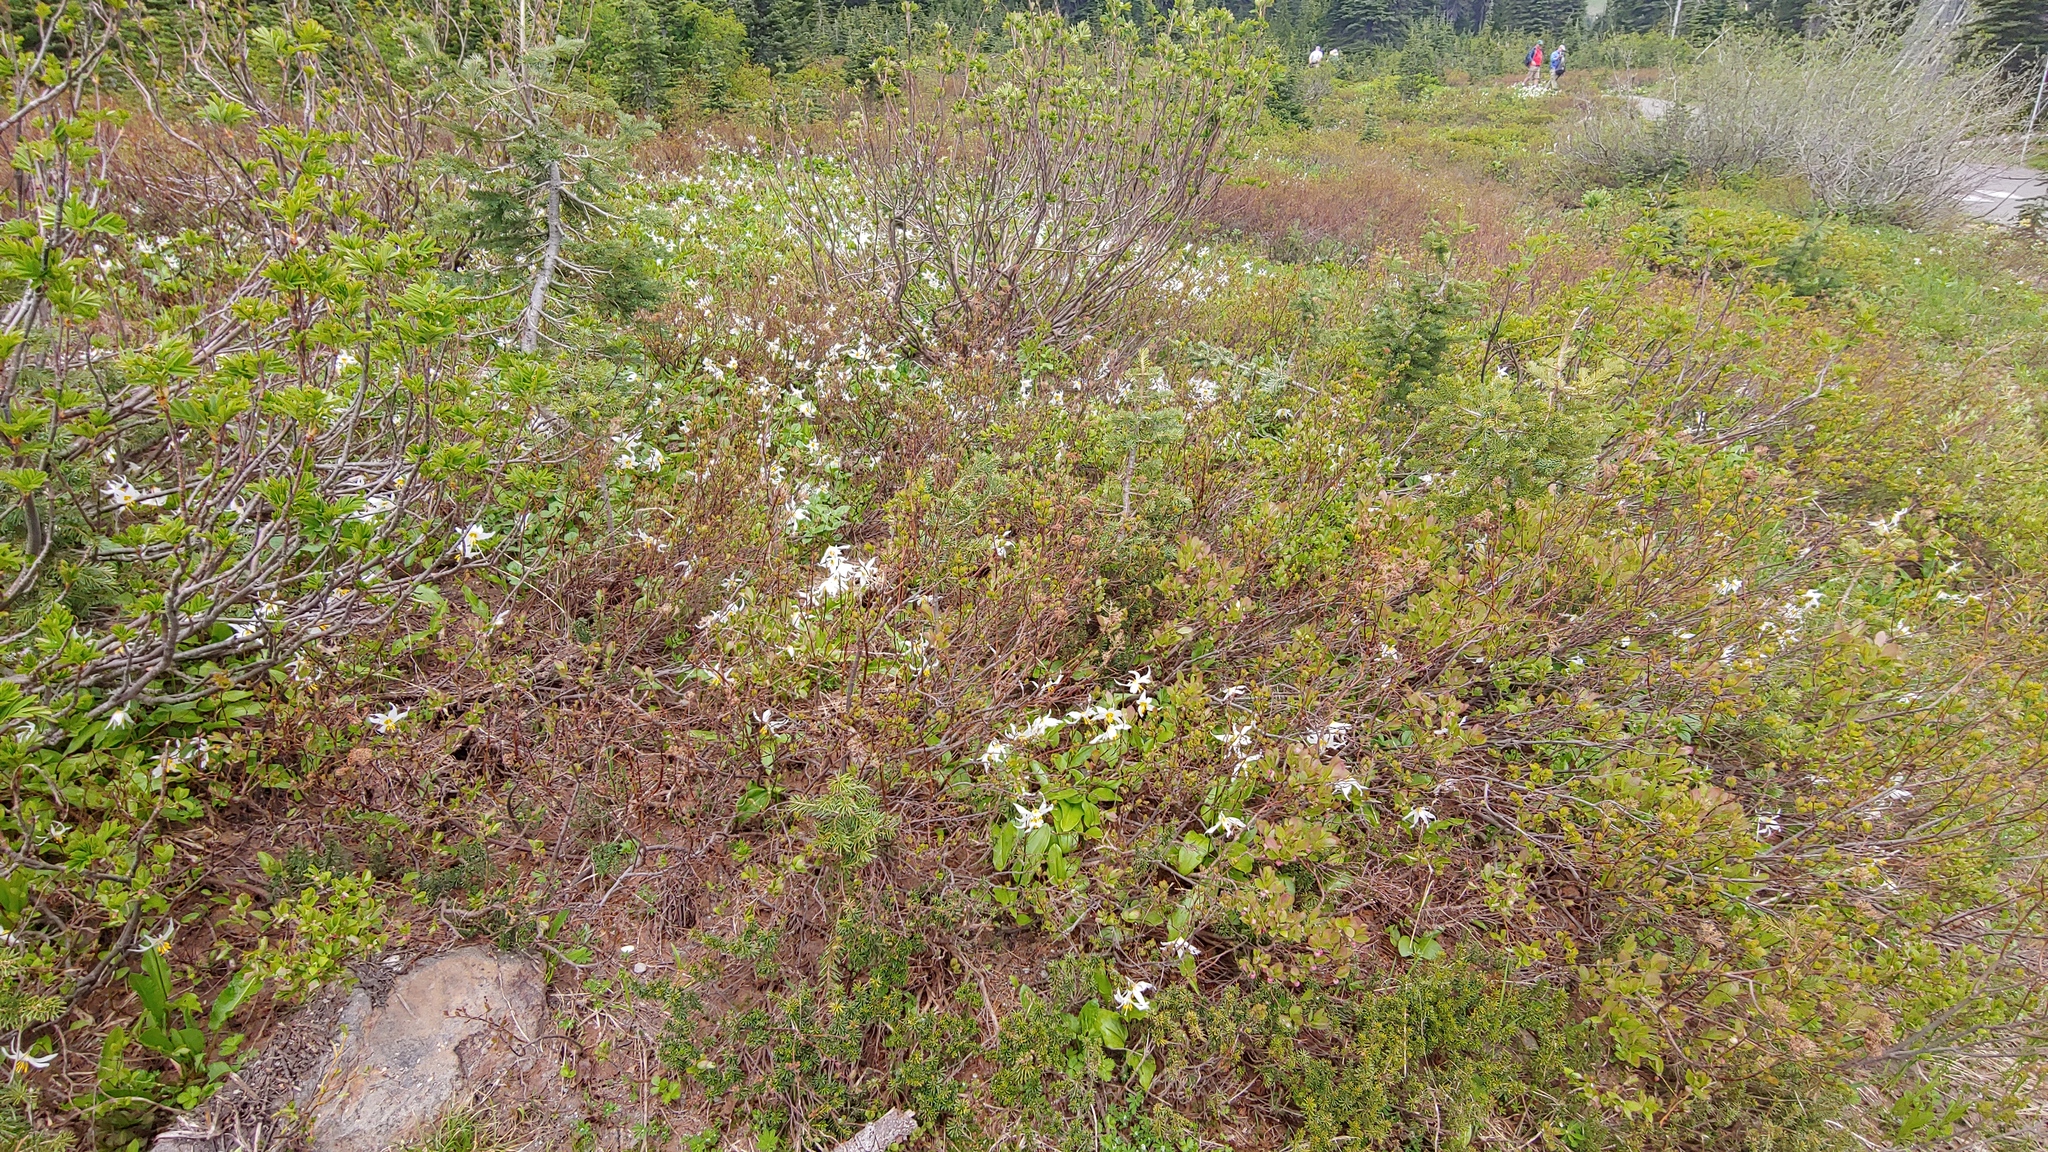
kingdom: Plantae
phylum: Tracheophyta
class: Liliopsida
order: Liliales
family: Liliaceae
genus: Erythronium
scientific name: Erythronium montanum
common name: Avalanche lily
